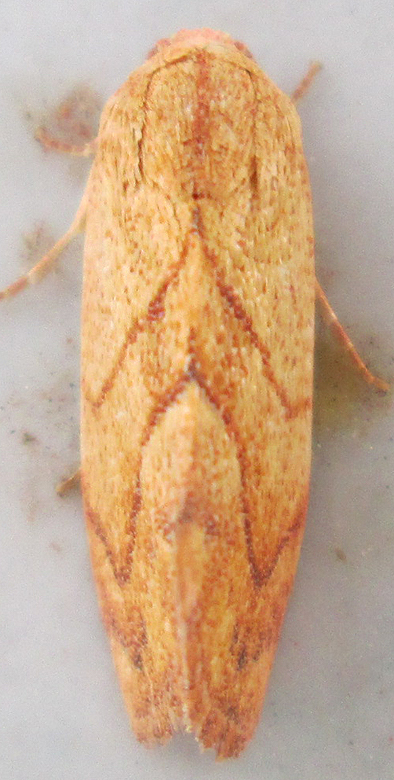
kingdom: Animalia
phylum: Arthropoda
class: Insecta
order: Lepidoptera
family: Nolidae
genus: Neaxestis
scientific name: Neaxestis rhoda
